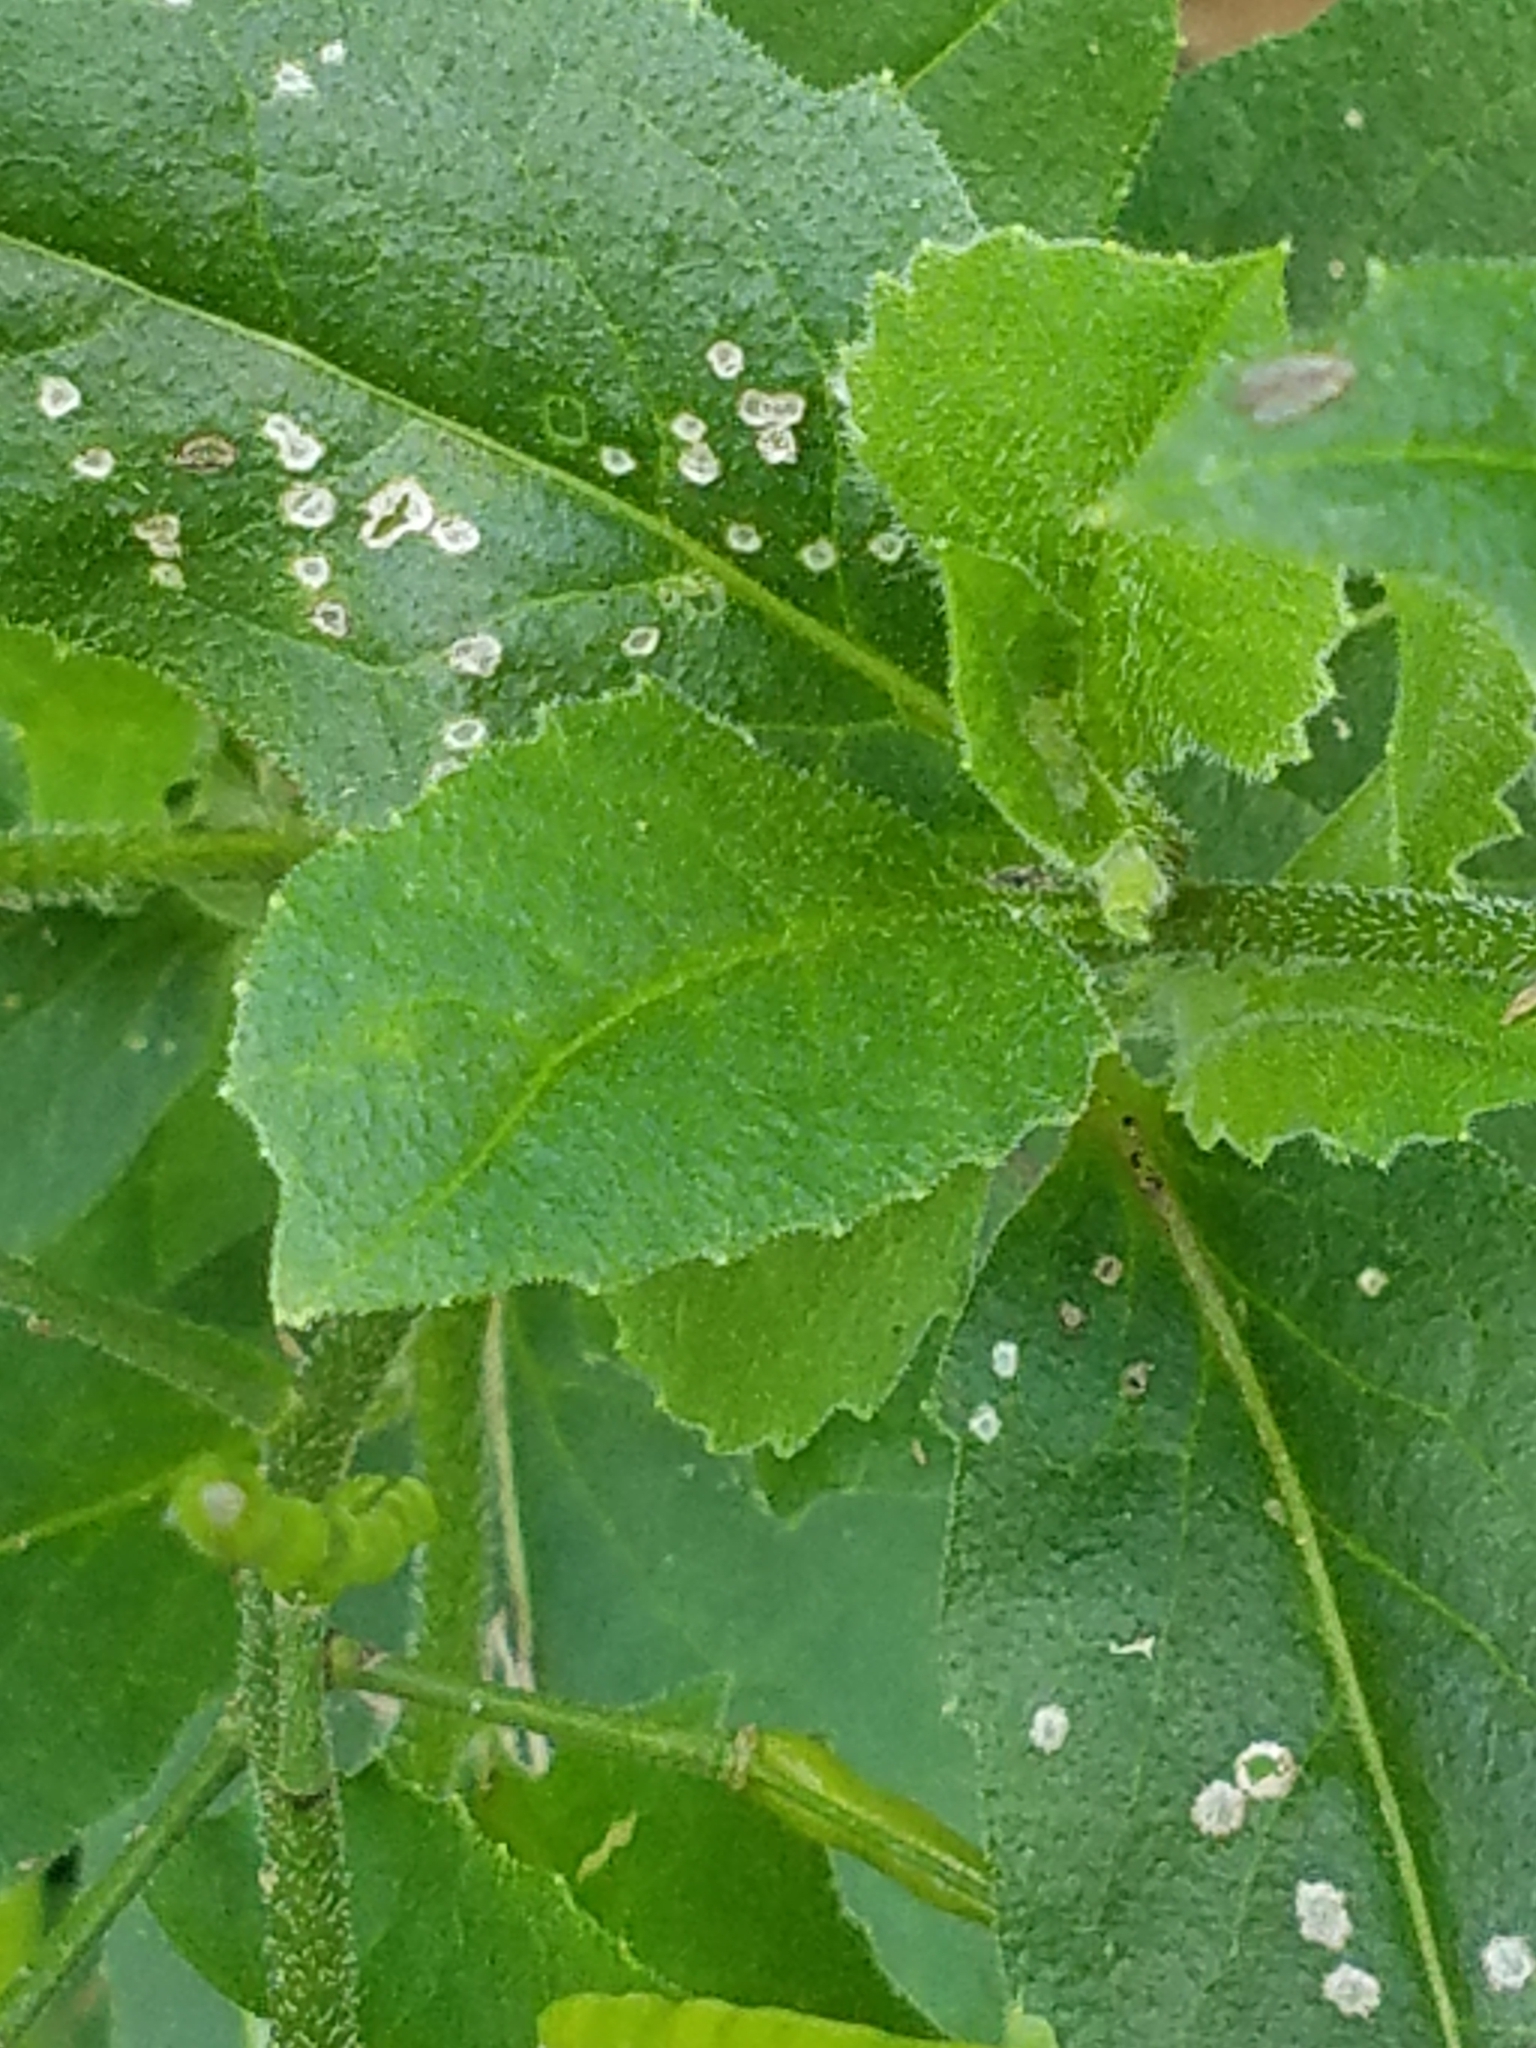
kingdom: Plantae
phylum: Tracheophyta
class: Magnoliopsida
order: Brassicales
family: Brassicaceae
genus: Hesperis
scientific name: Hesperis matronalis
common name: Dame's-violet
